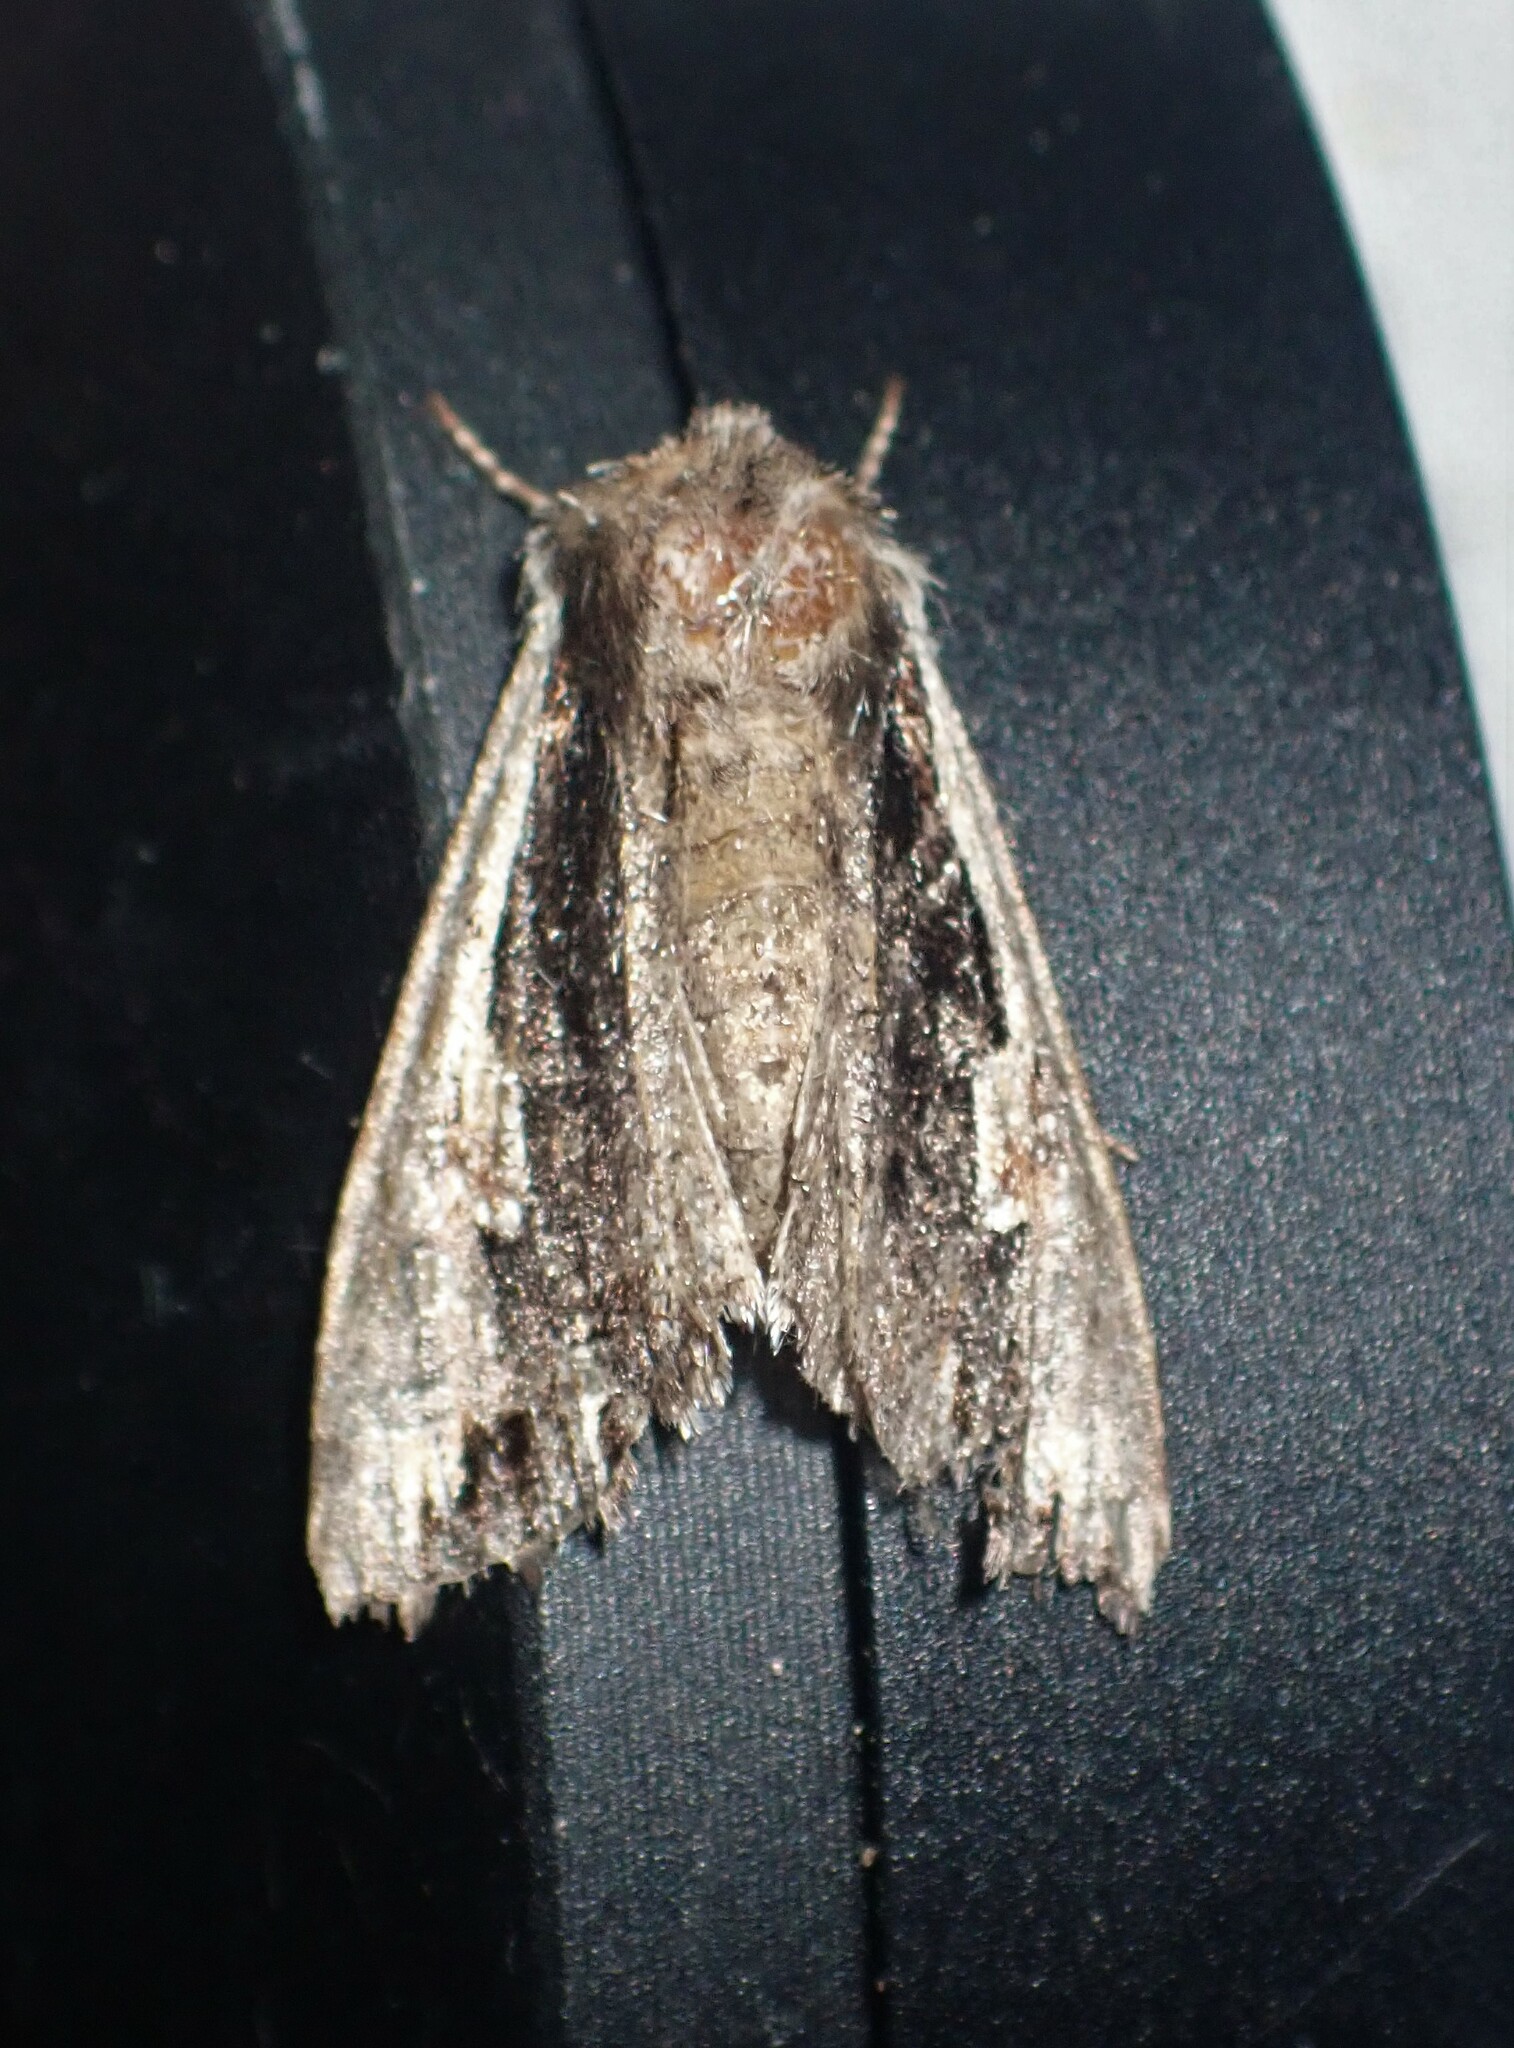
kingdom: Animalia
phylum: Arthropoda
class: Insecta
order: Lepidoptera
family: Noctuidae
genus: Achatia
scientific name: Achatia evicta
